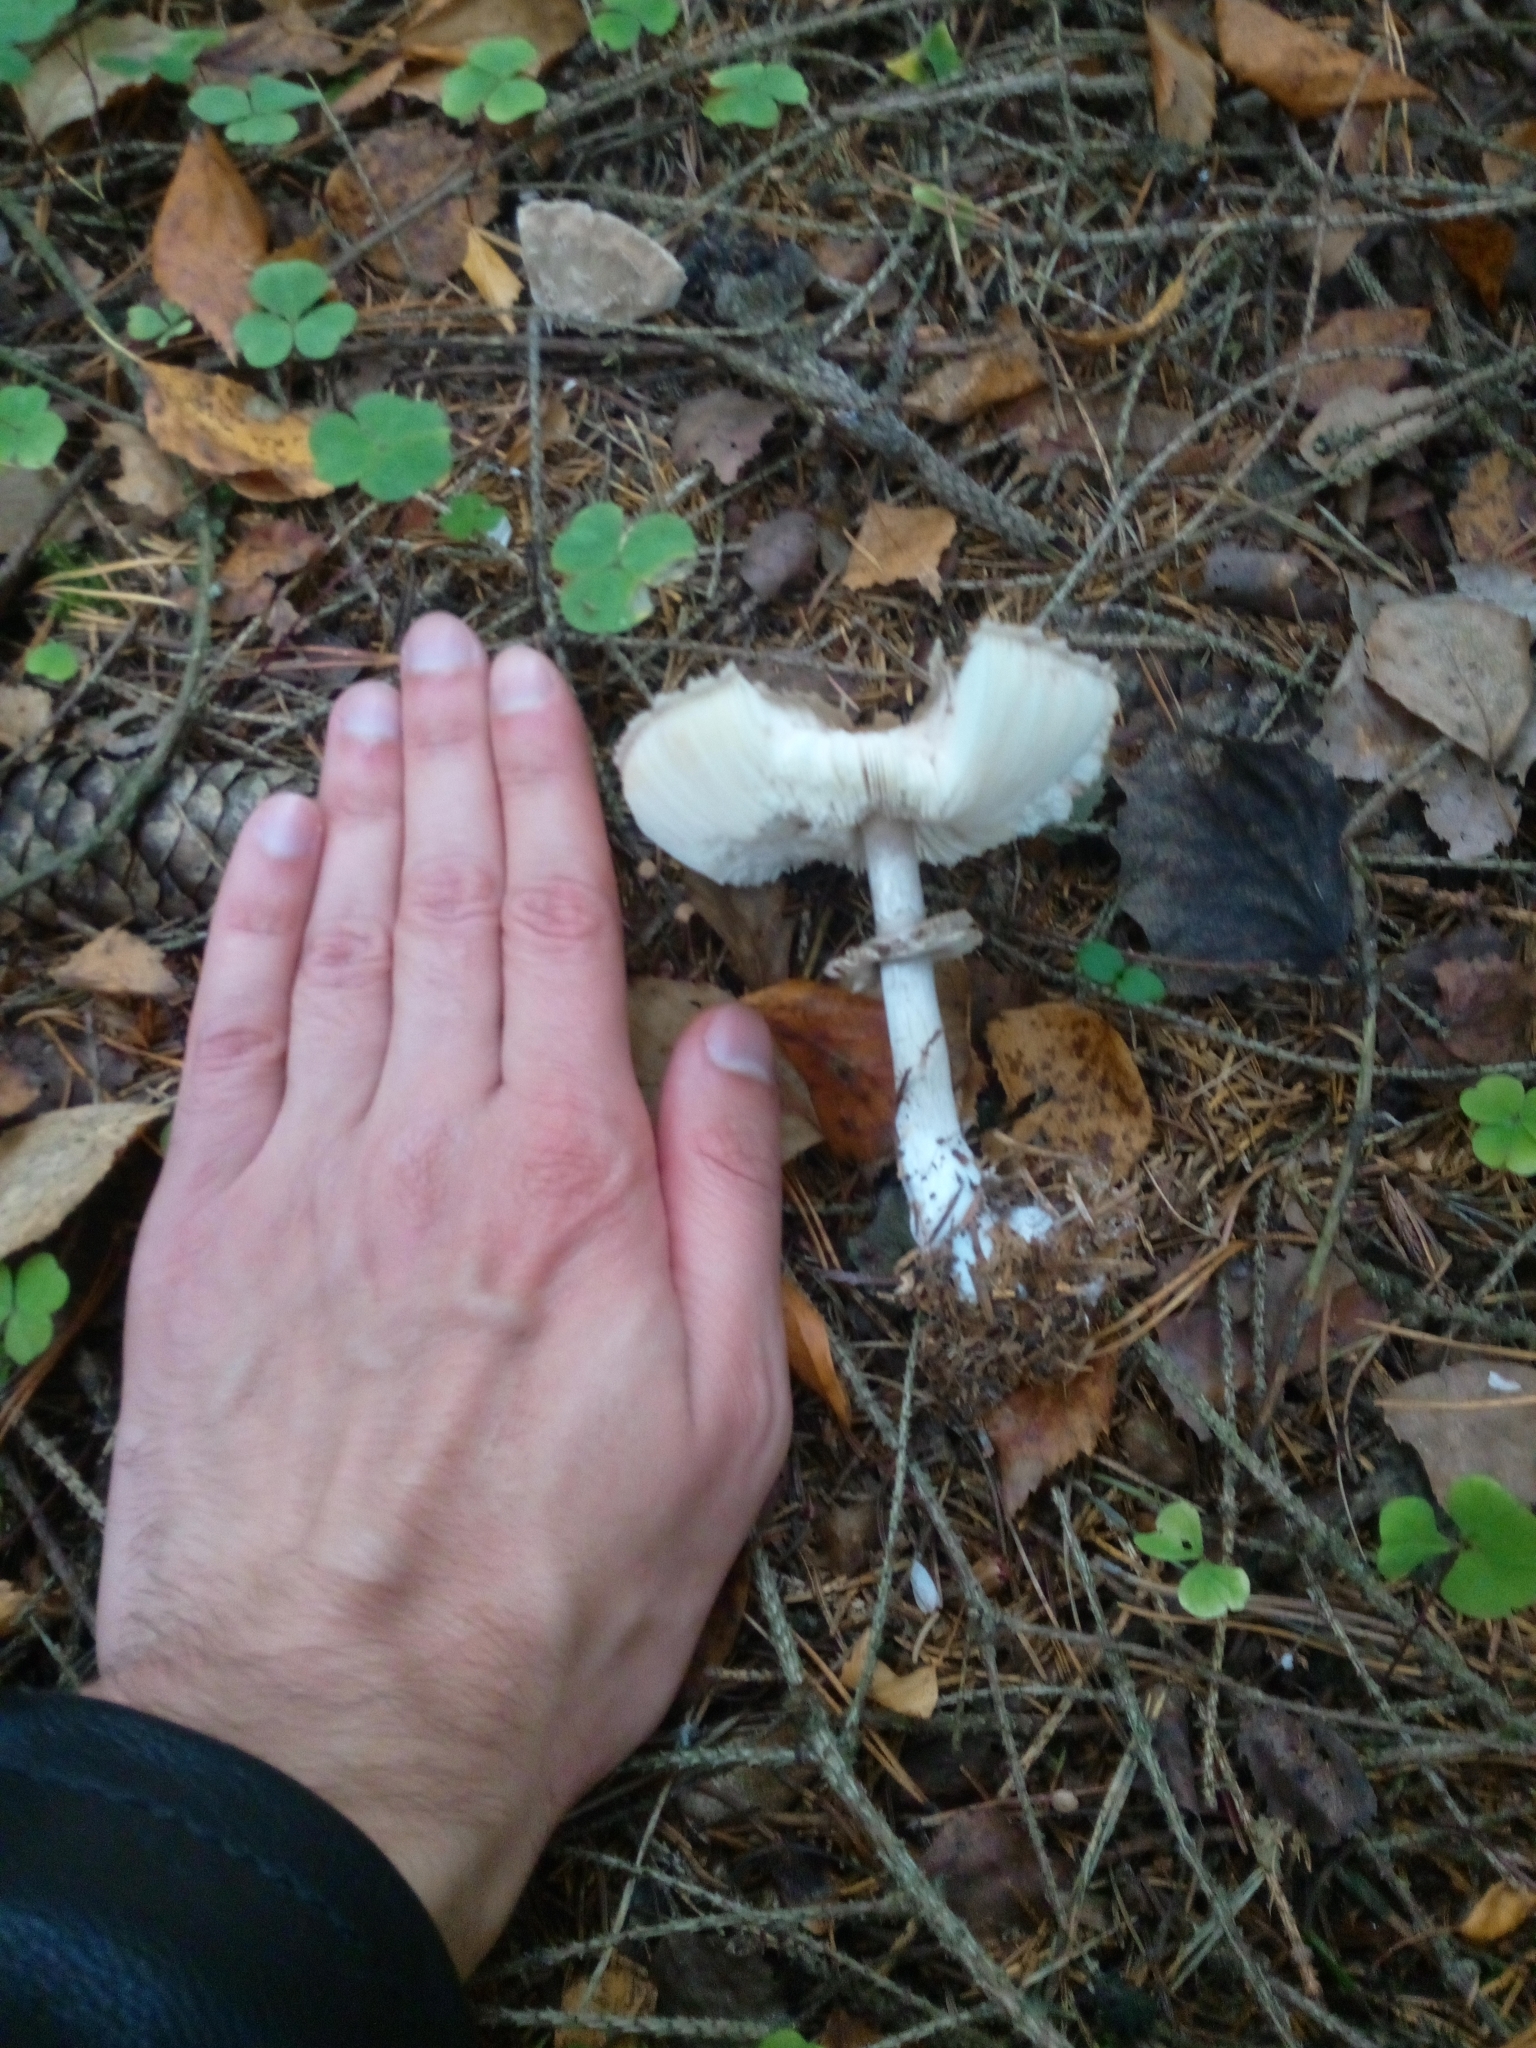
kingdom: Fungi
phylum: Basidiomycota
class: Agaricomycetes
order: Agaricales
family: Agaricaceae
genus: Chlorophyllum
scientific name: Chlorophyllum rhacodes
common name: Shaggy parasol
